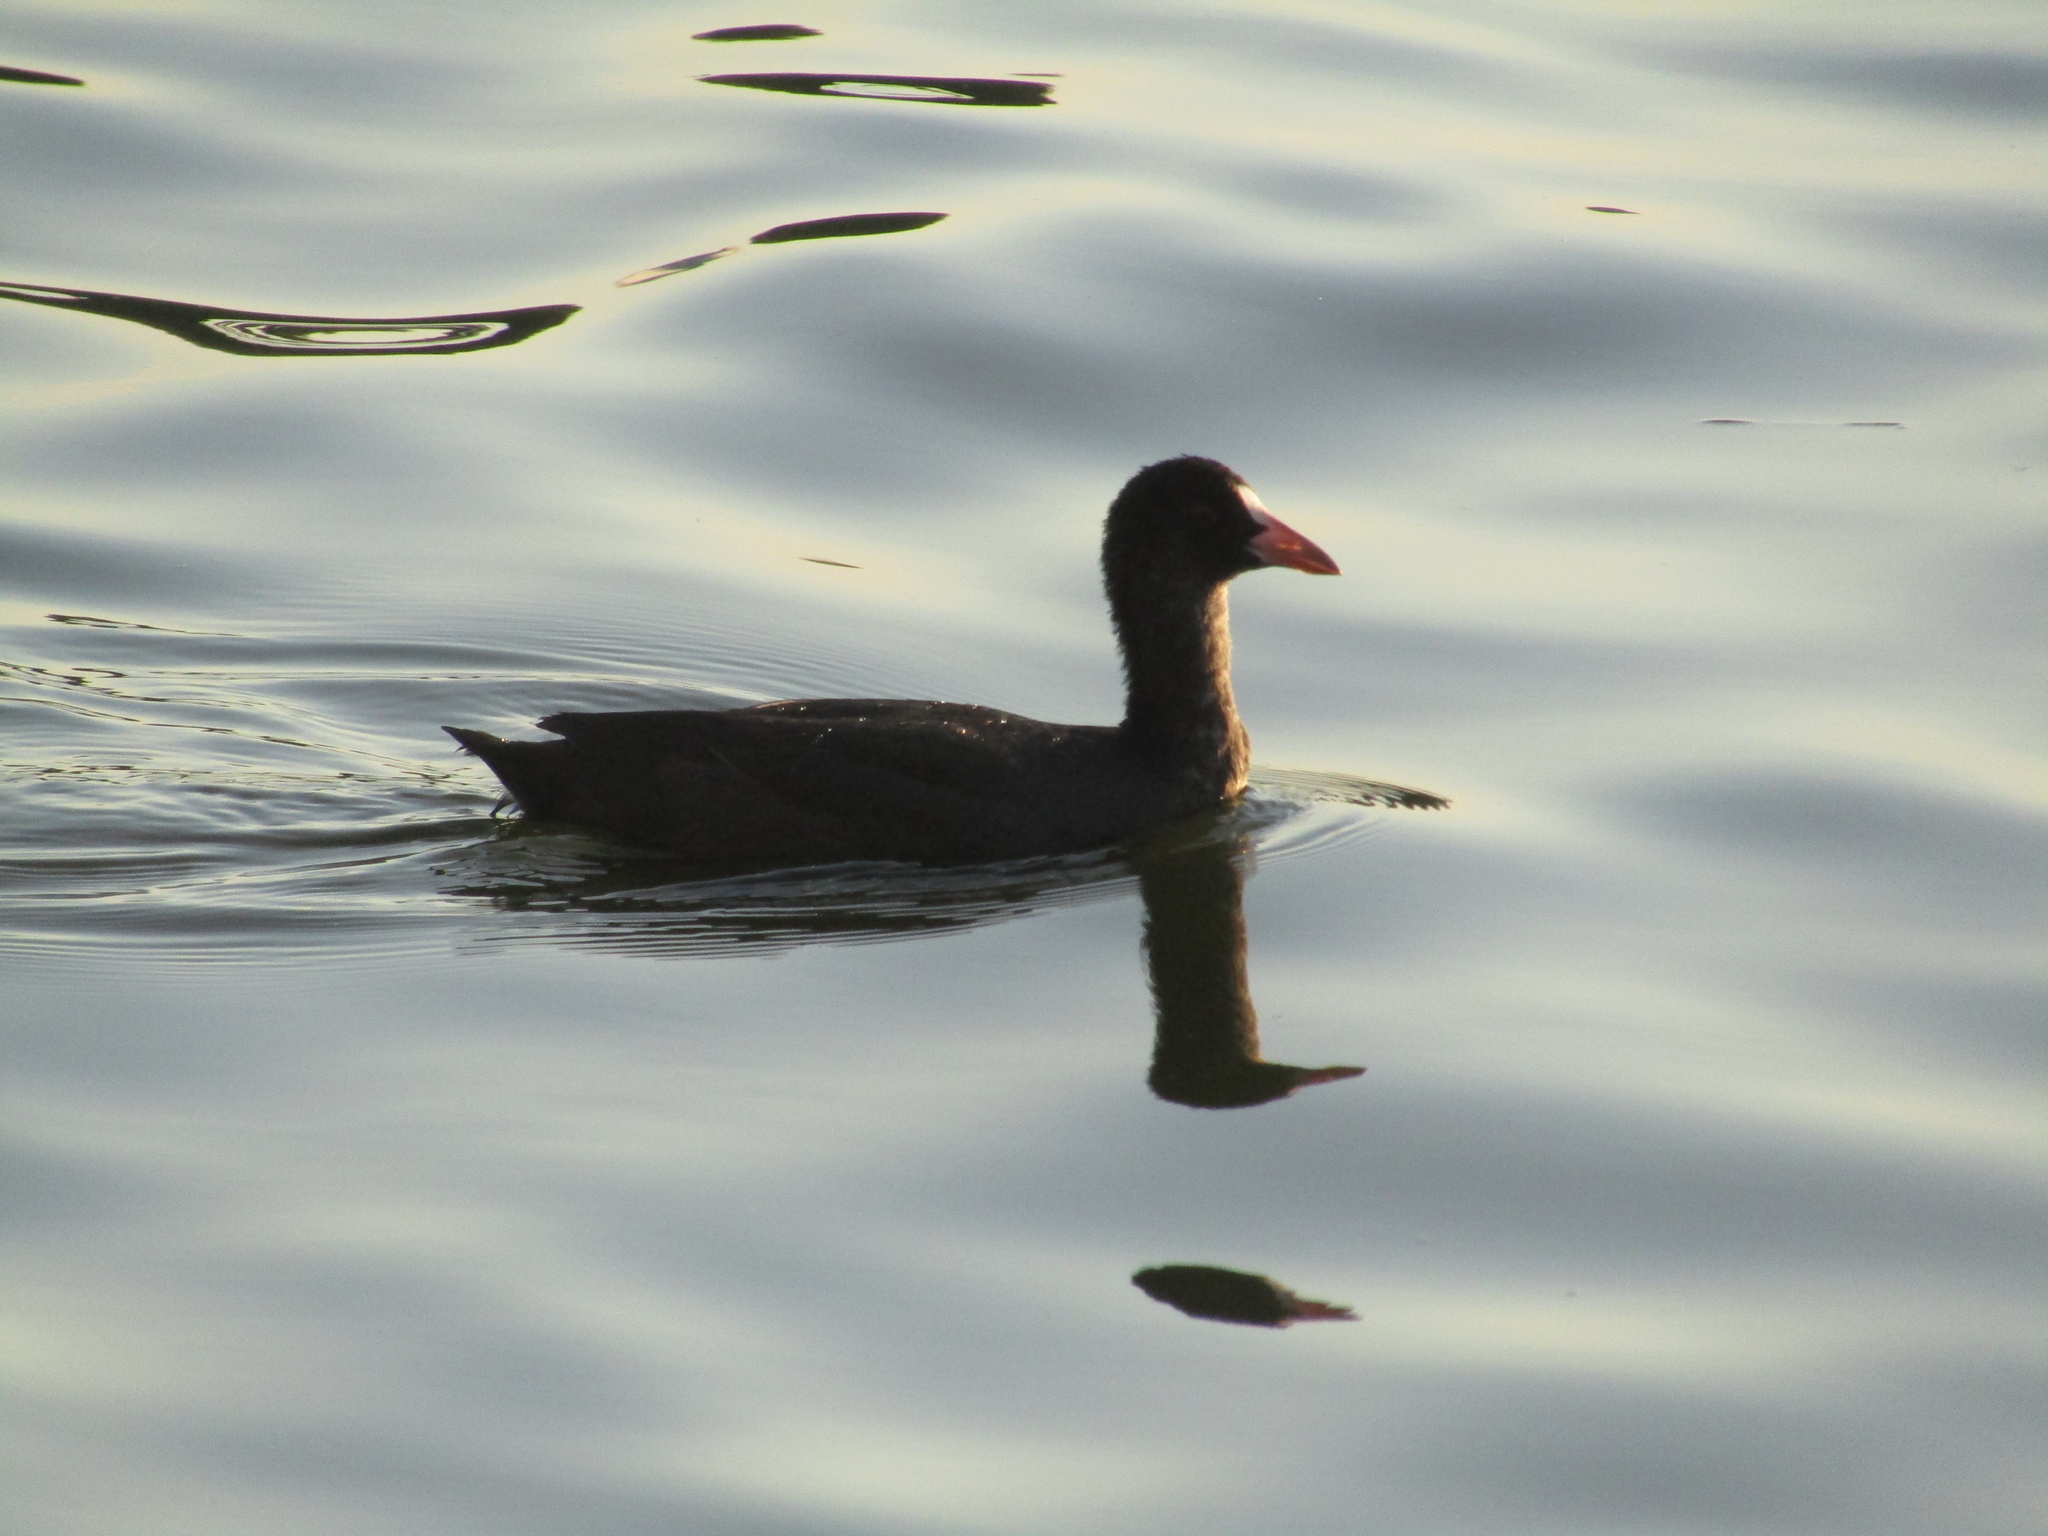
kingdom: Animalia
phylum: Chordata
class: Aves
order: Gruiformes
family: Rallidae
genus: Fulica
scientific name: Fulica atra
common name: Eurasian coot
